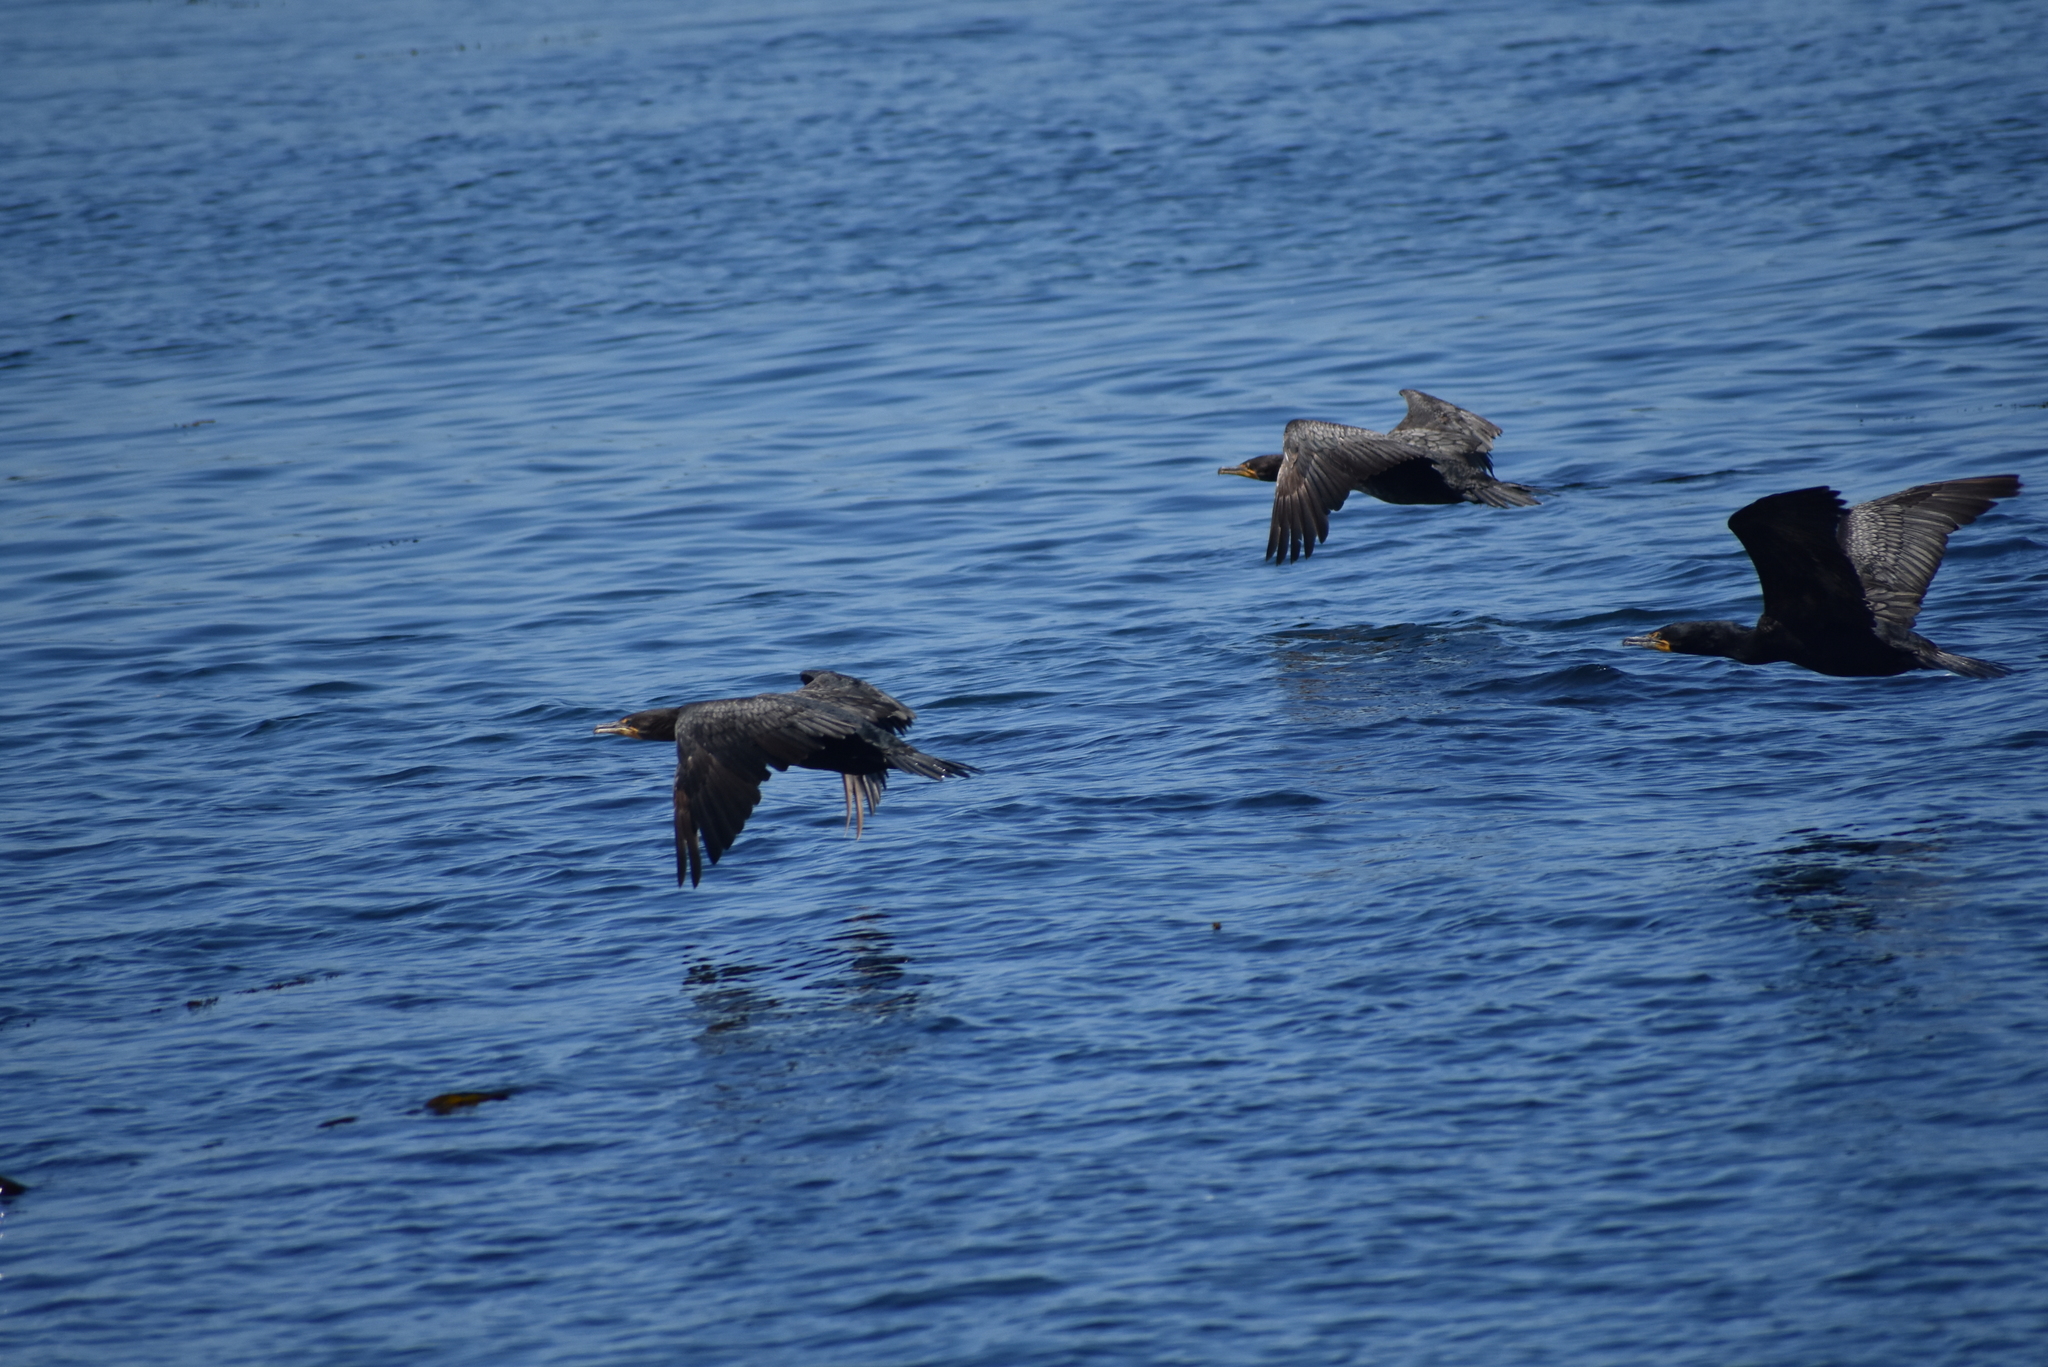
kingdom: Animalia
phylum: Chordata
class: Aves
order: Suliformes
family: Phalacrocoracidae
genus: Phalacrocorax
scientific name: Phalacrocorax auritus
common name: Double-crested cormorant
